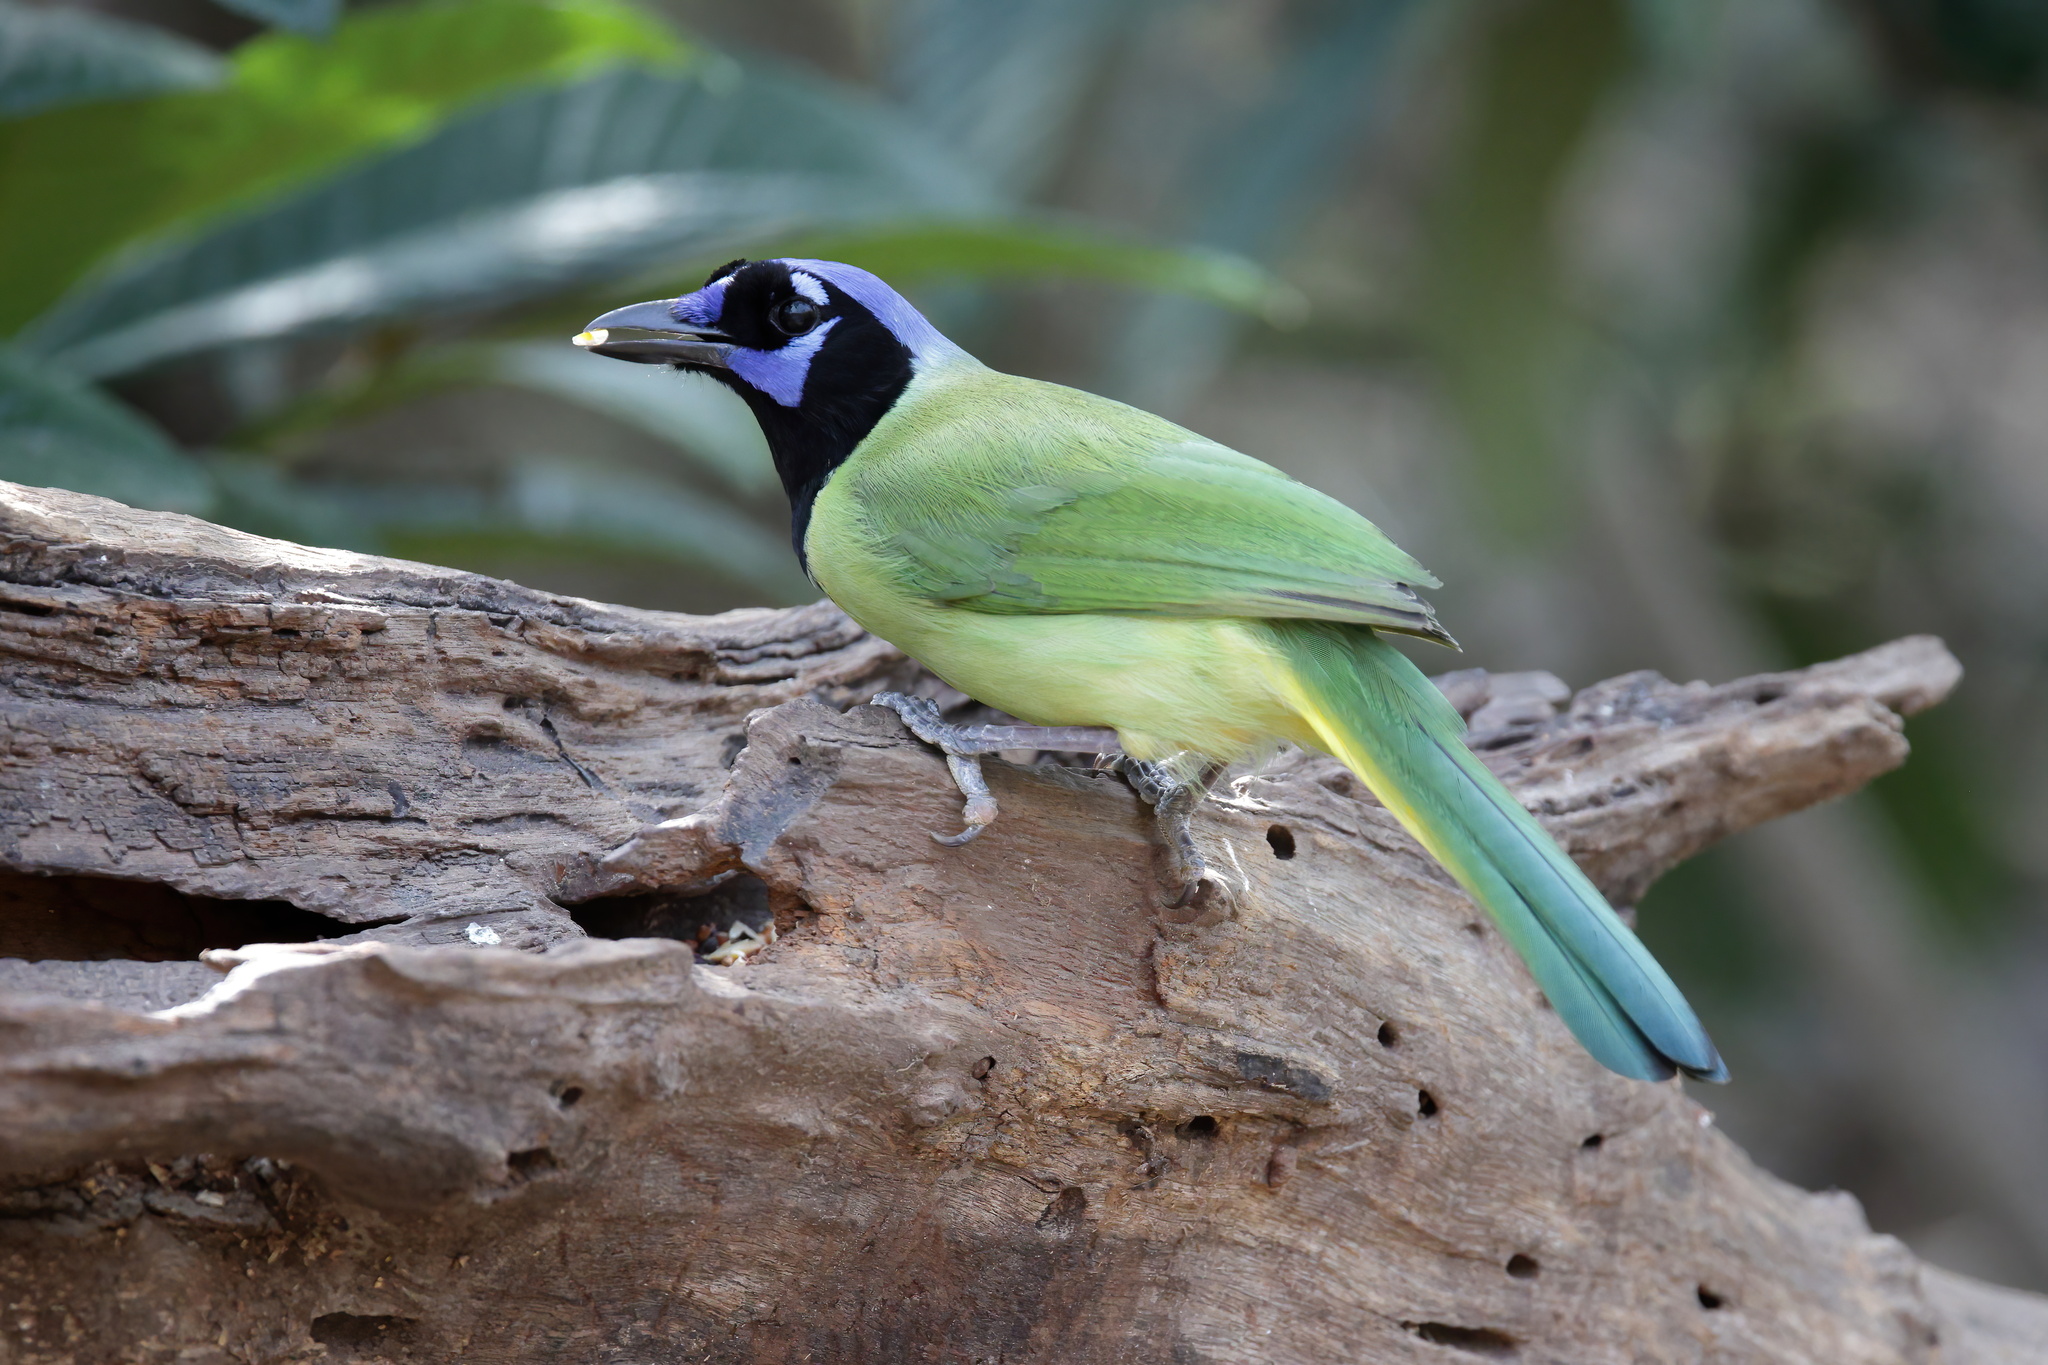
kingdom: Animalia
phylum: Chordata
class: Aves
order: Passeriformes
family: Corvidae
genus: Cyanocorax
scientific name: Cyanocorax yncas
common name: Green jay
